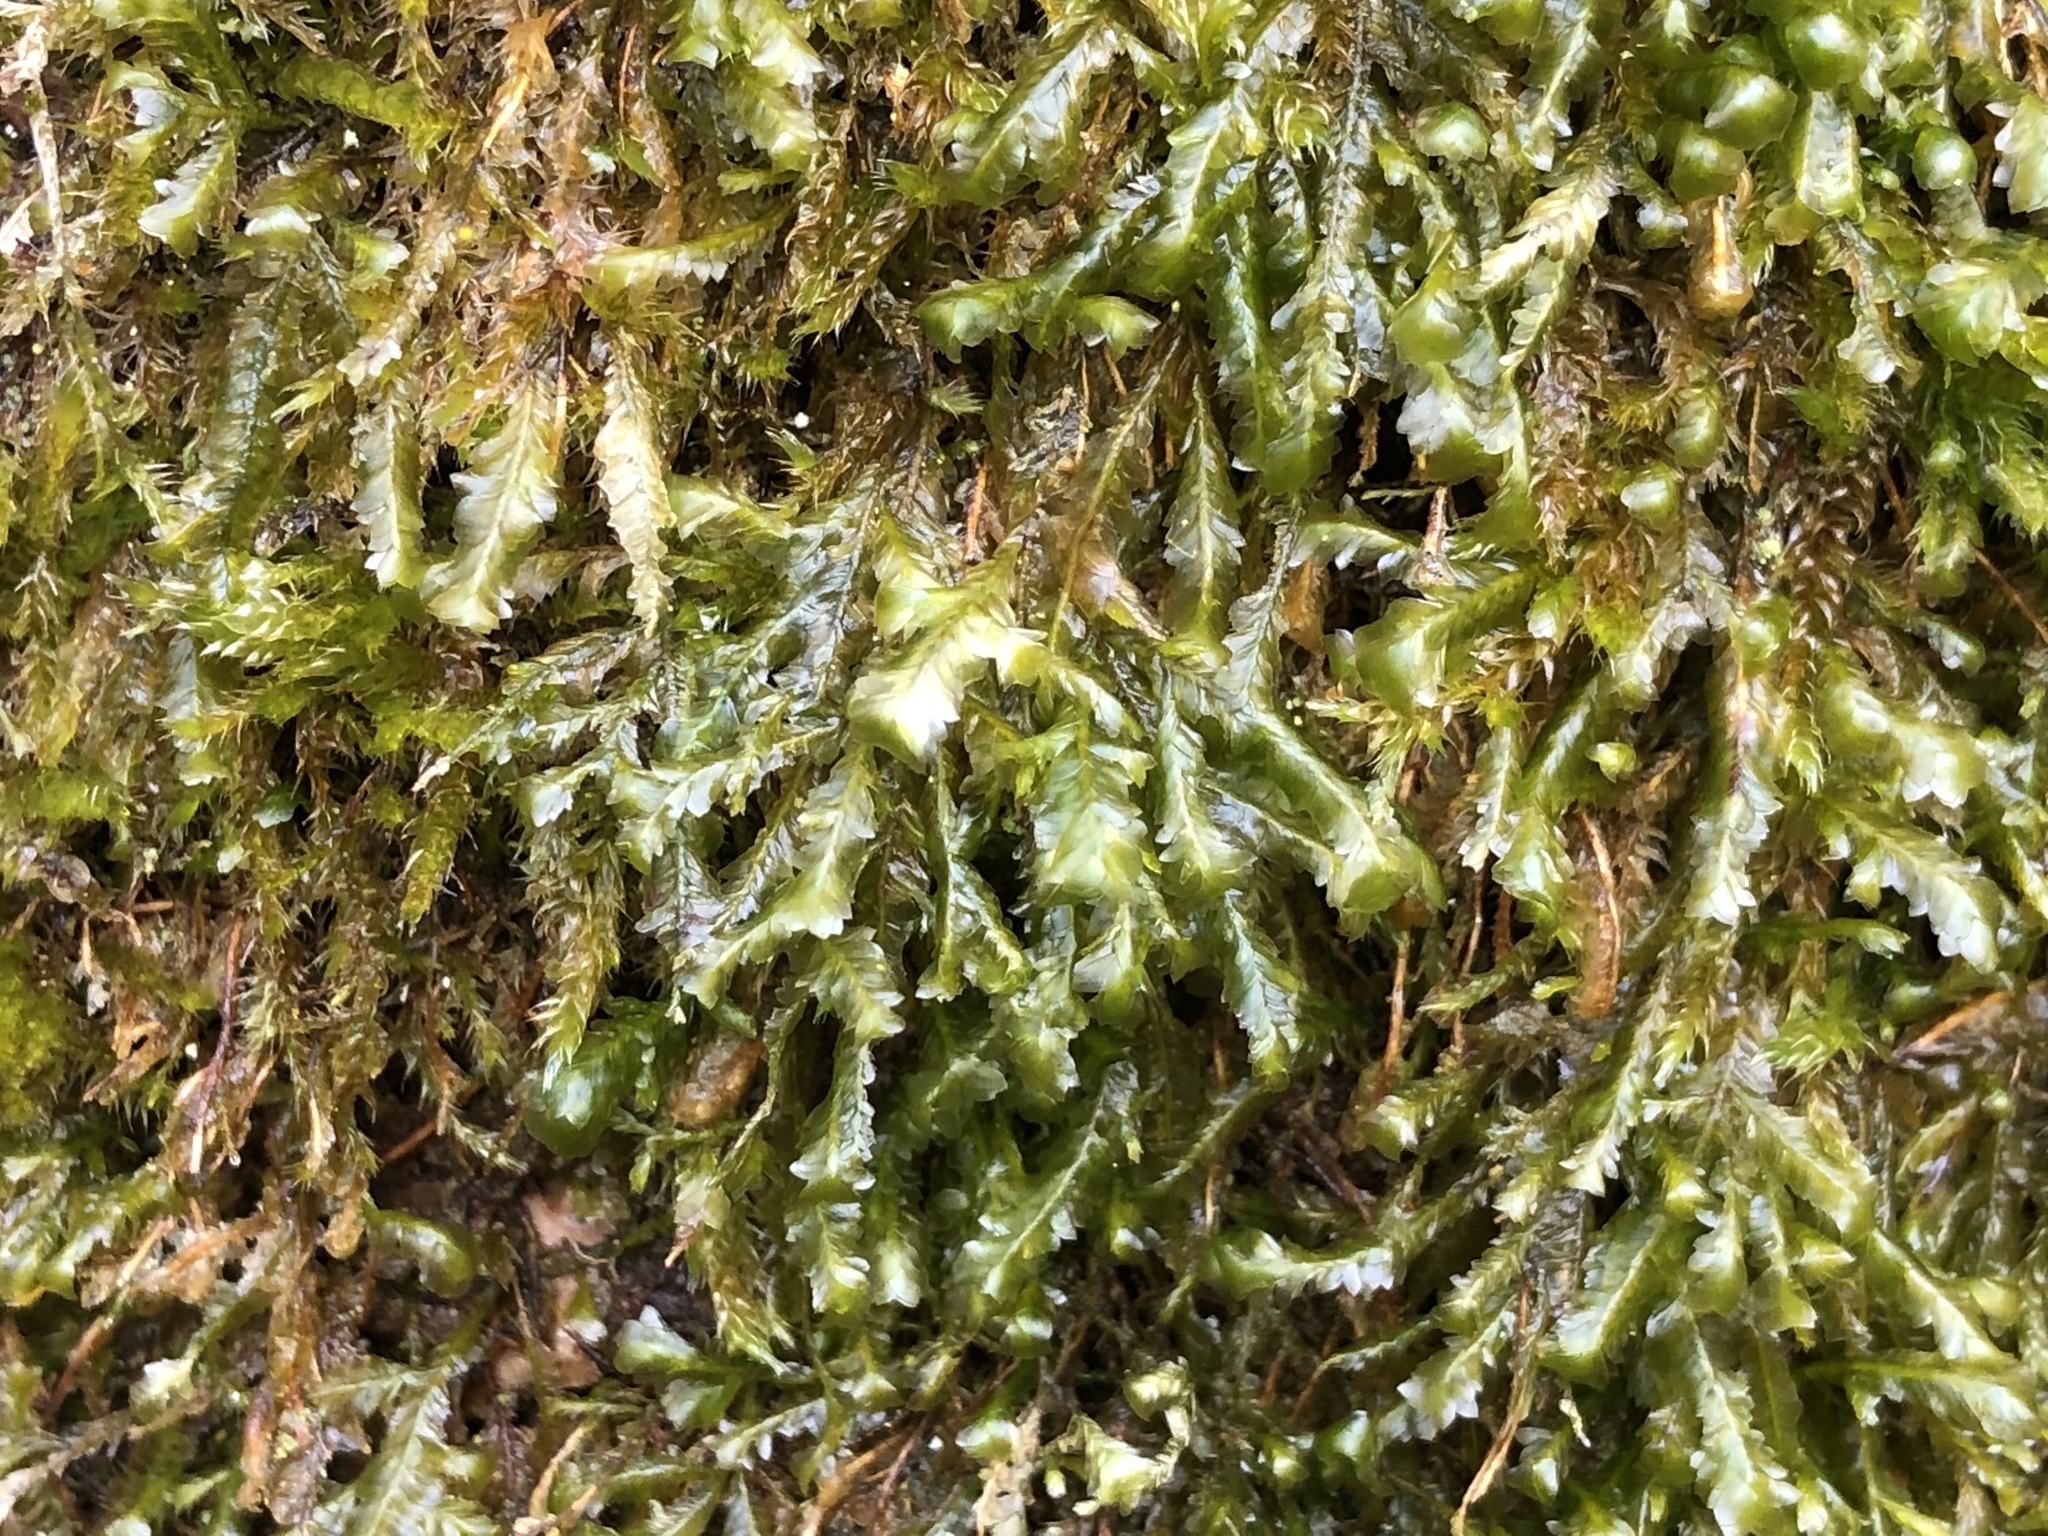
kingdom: Plantae
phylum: Bryophyta
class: Bryopsida
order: Hypnales
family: Neckeraceae
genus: Homalia
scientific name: Homalia trichomanoides
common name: Lime homalia moss
